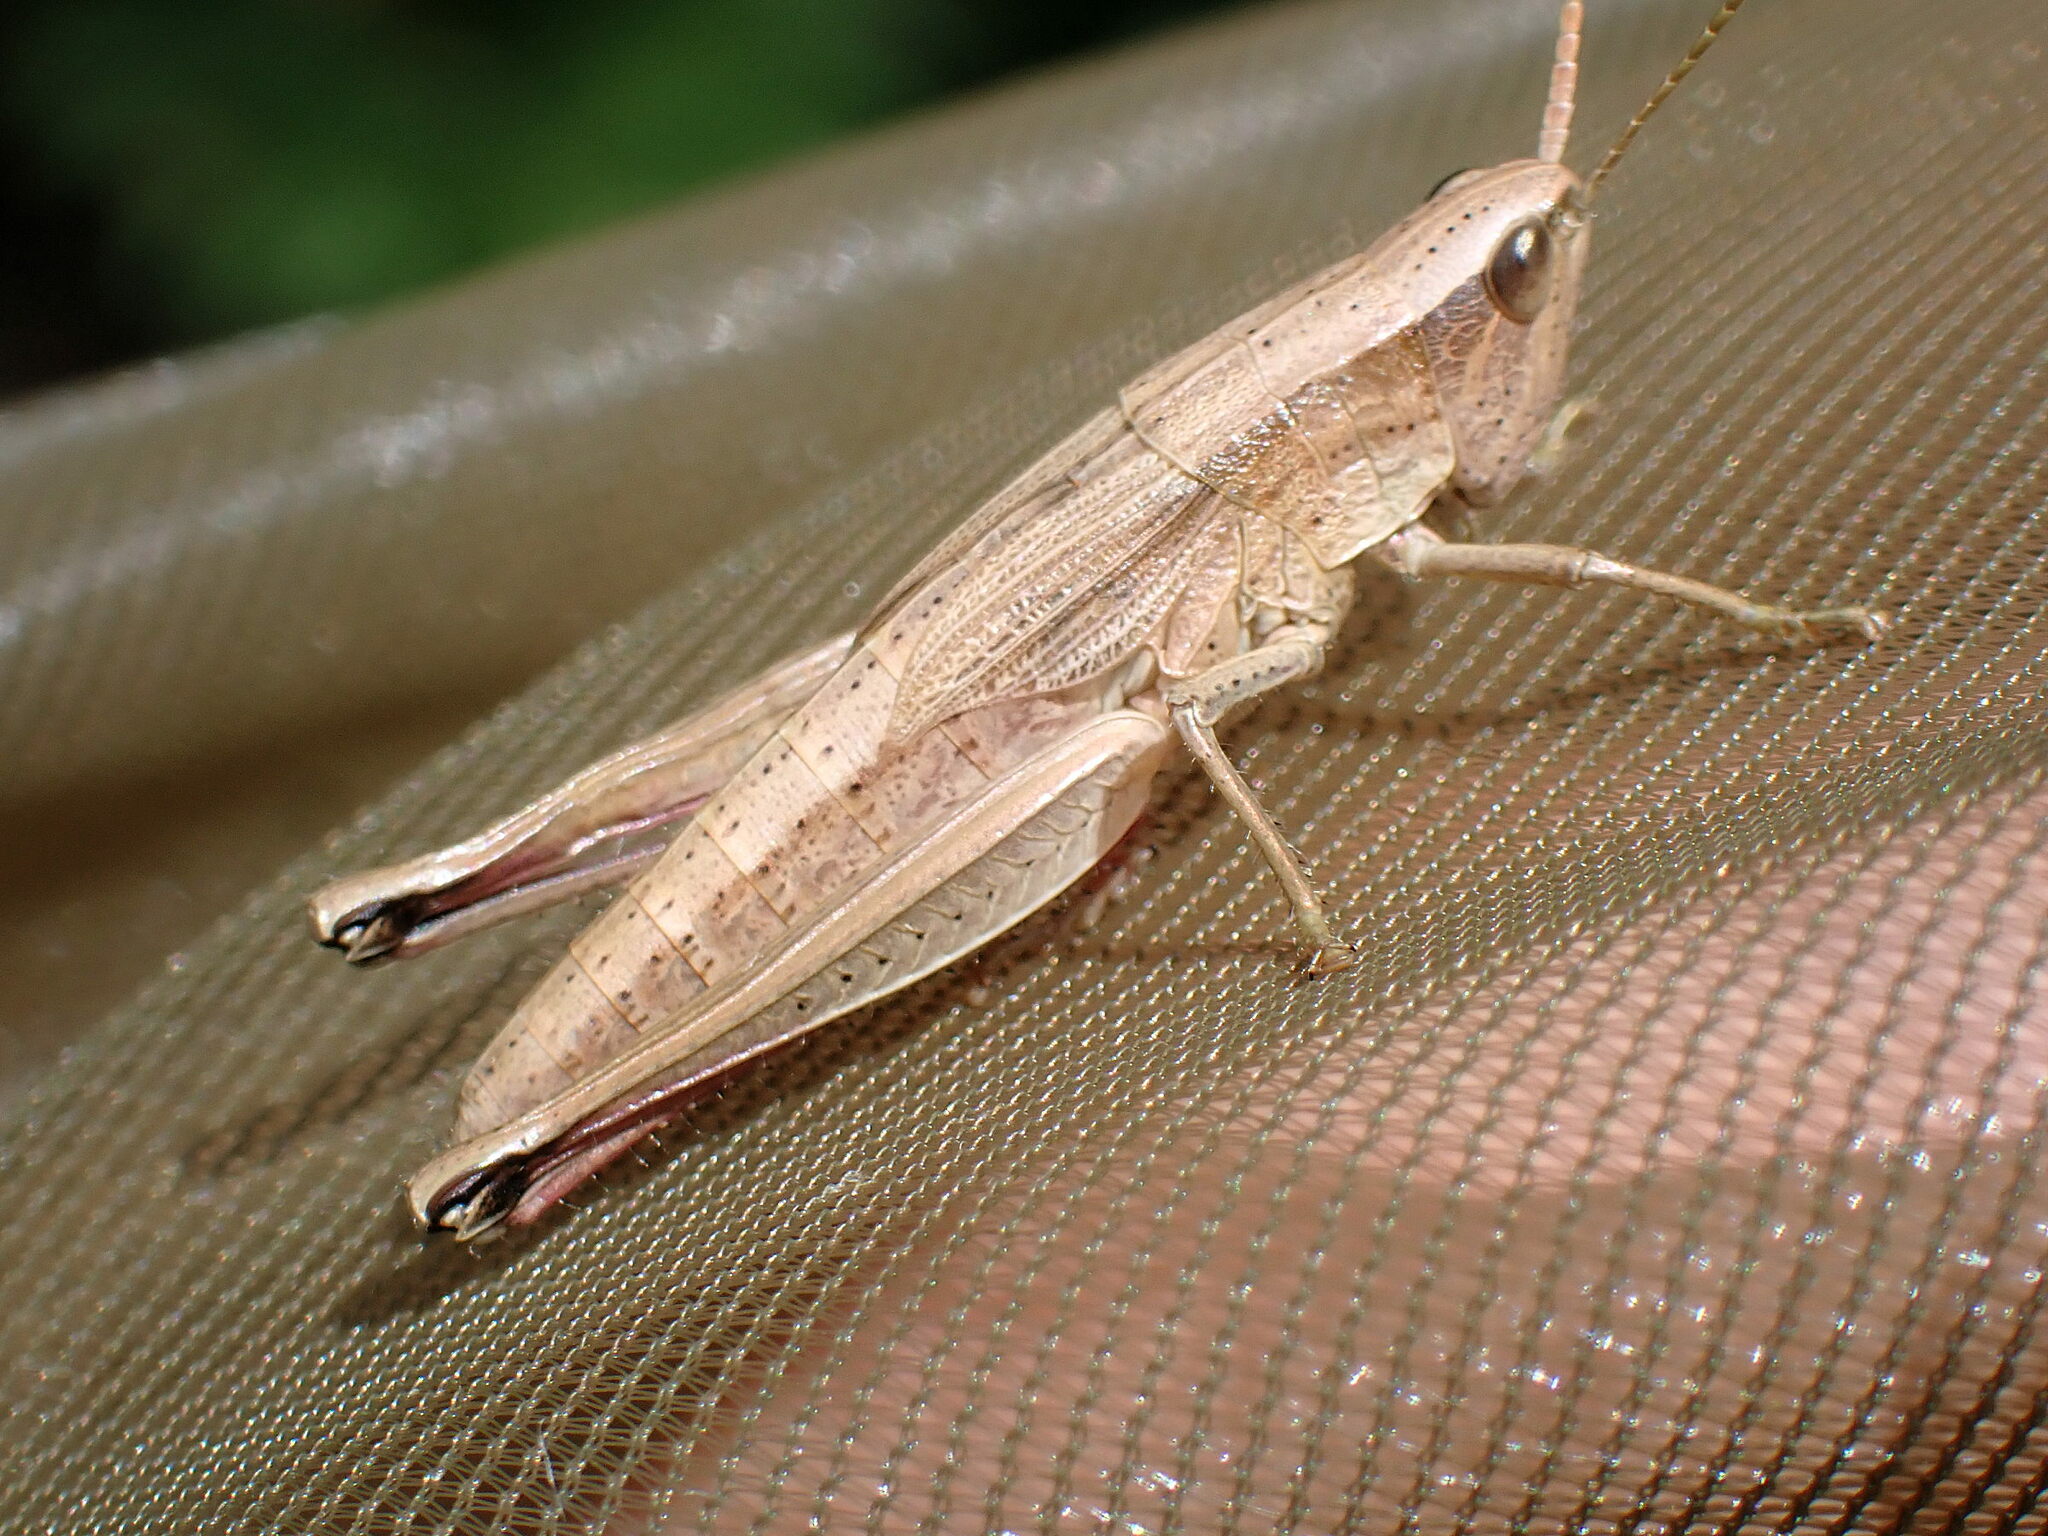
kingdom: Animalia
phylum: Arthropoda
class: Insecta
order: Orthoptera
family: Acrididae
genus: Chrysochraon
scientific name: Chrysochraon dispar
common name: Large gold grasshopper
